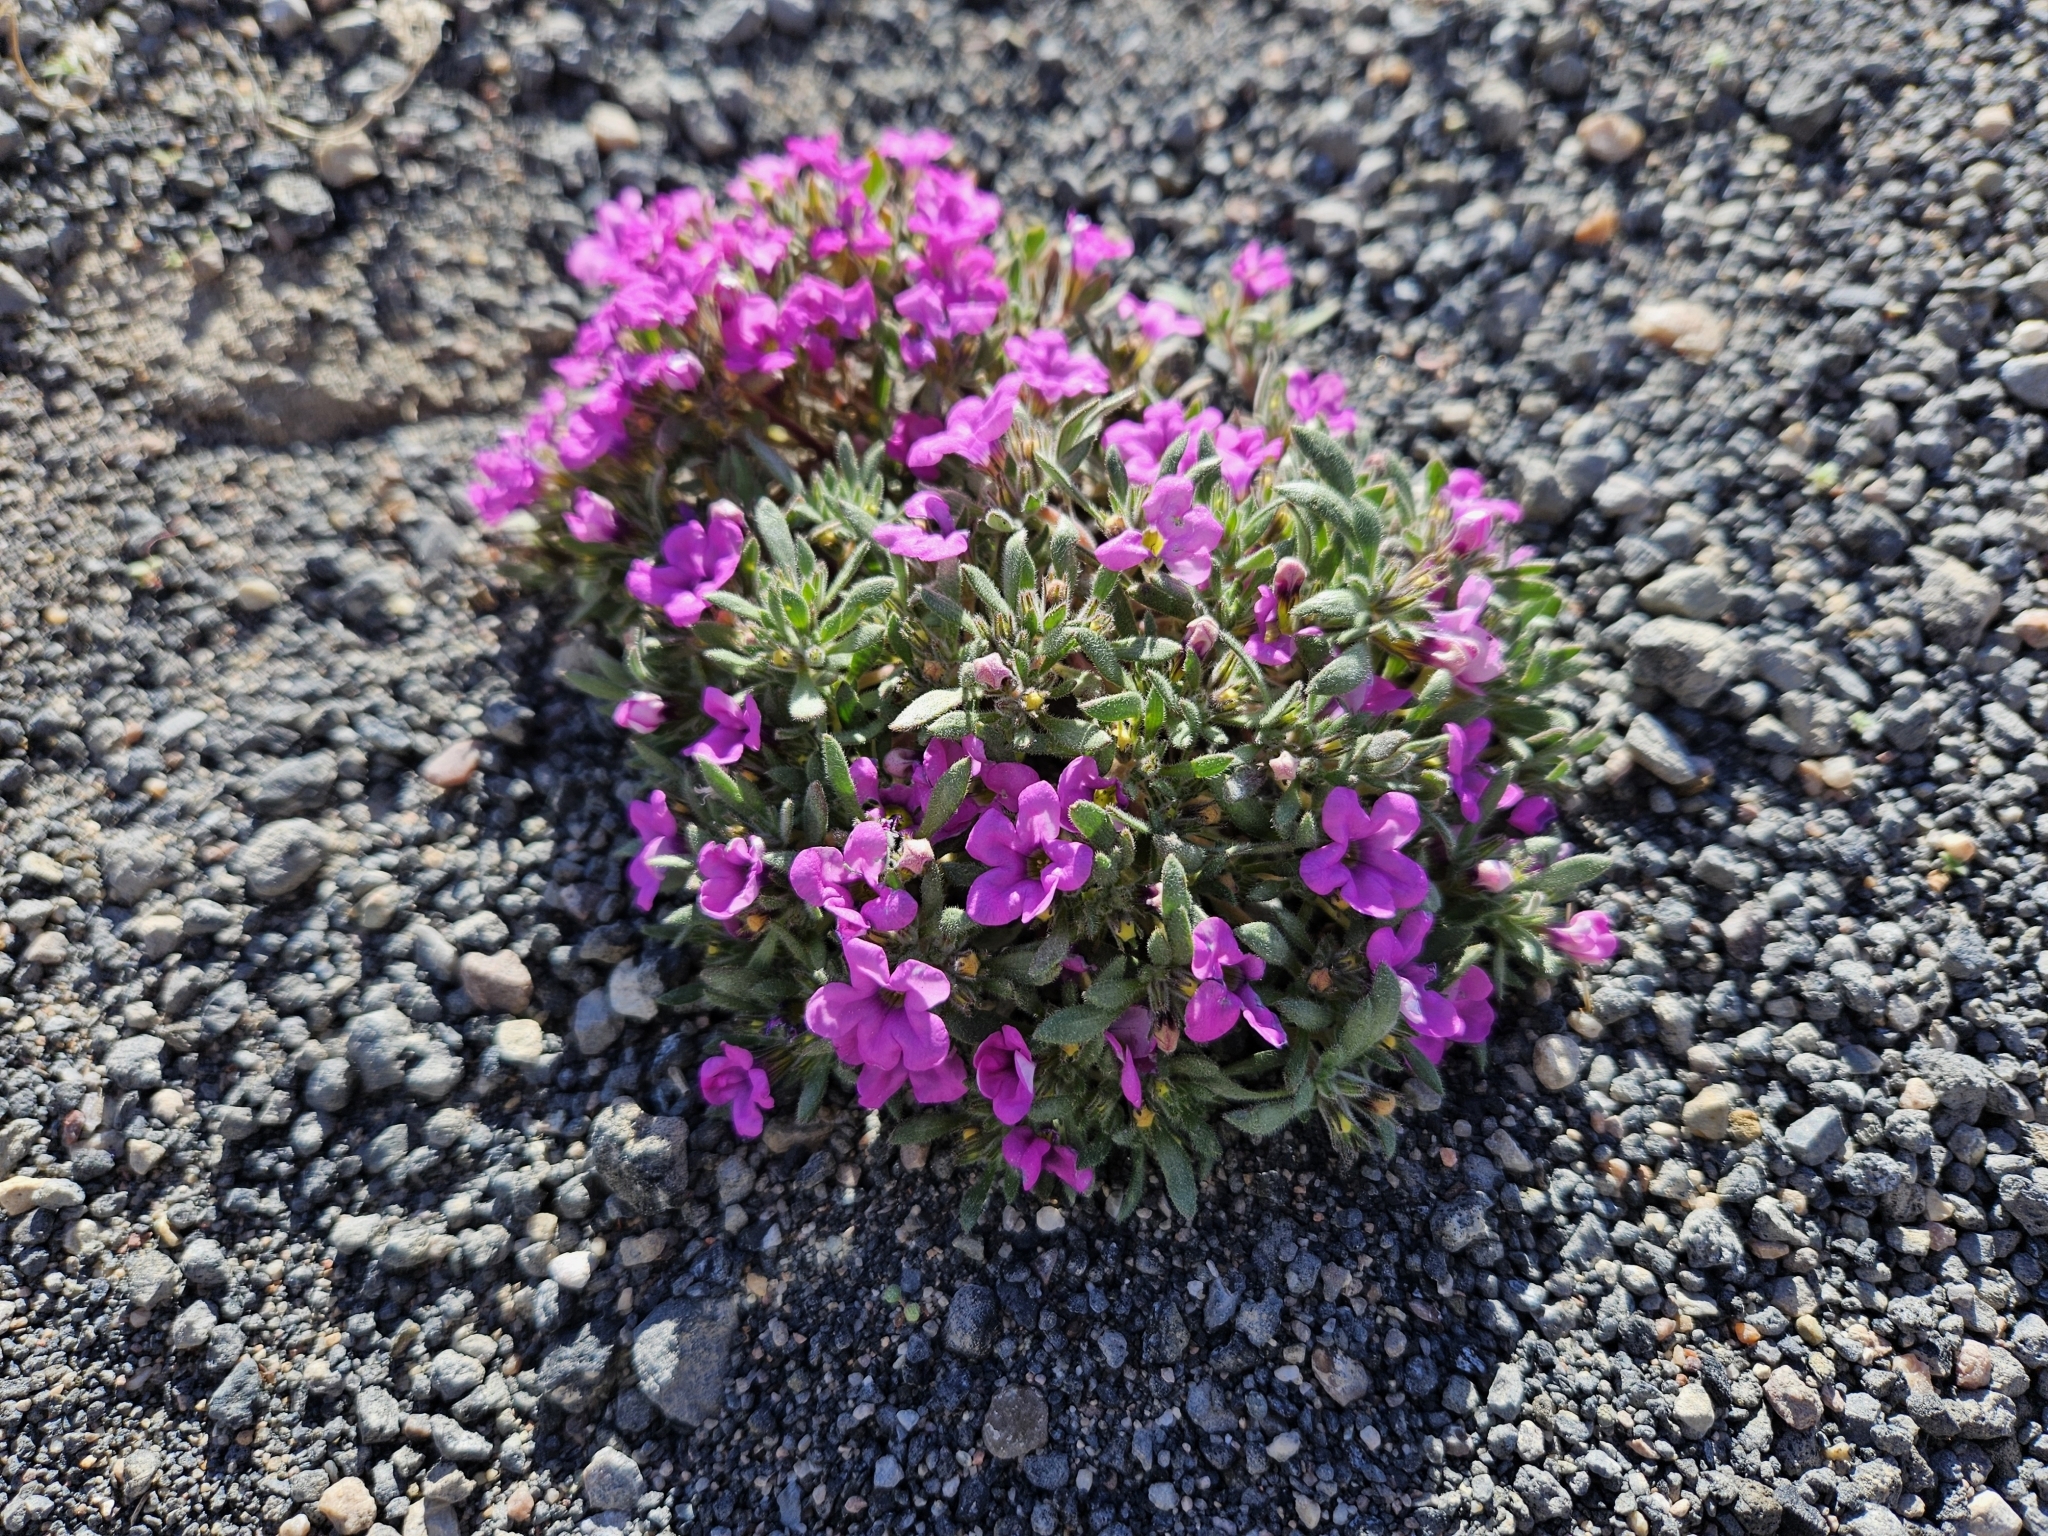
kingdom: Plantae
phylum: Tracheophyta
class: Magnoliopsida
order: Boraginales
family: Namaceae
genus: Nama
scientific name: Nama demissa
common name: Leafy nama
